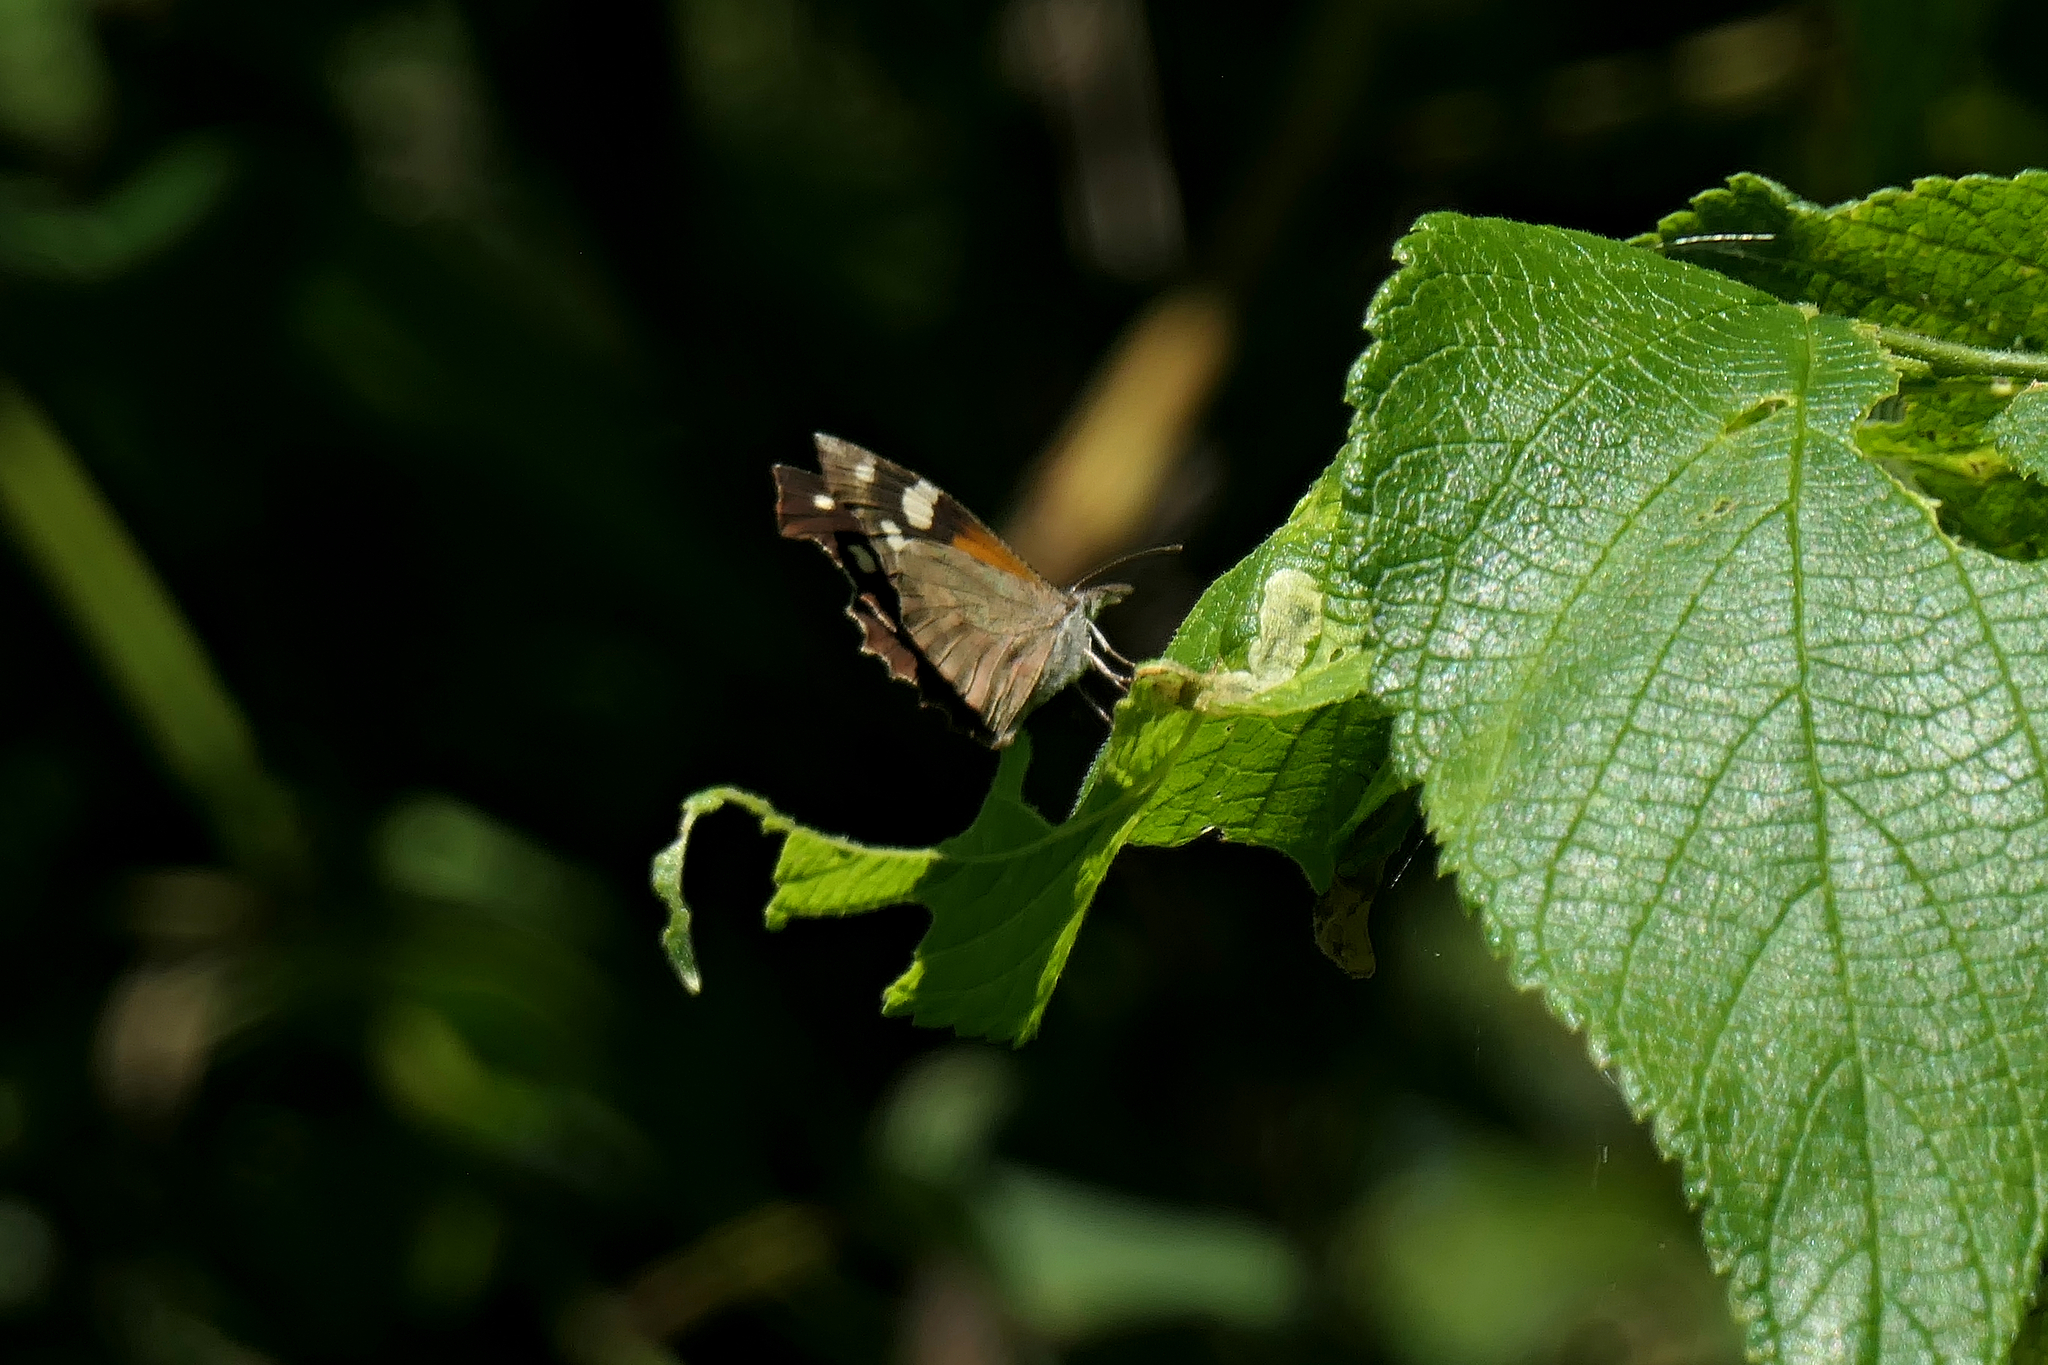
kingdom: Animalia
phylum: Arthropoda
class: Insecta
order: Lepidoptera
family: Nymphalidae
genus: Libytheana
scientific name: Libytheana carinenta
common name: American snout
